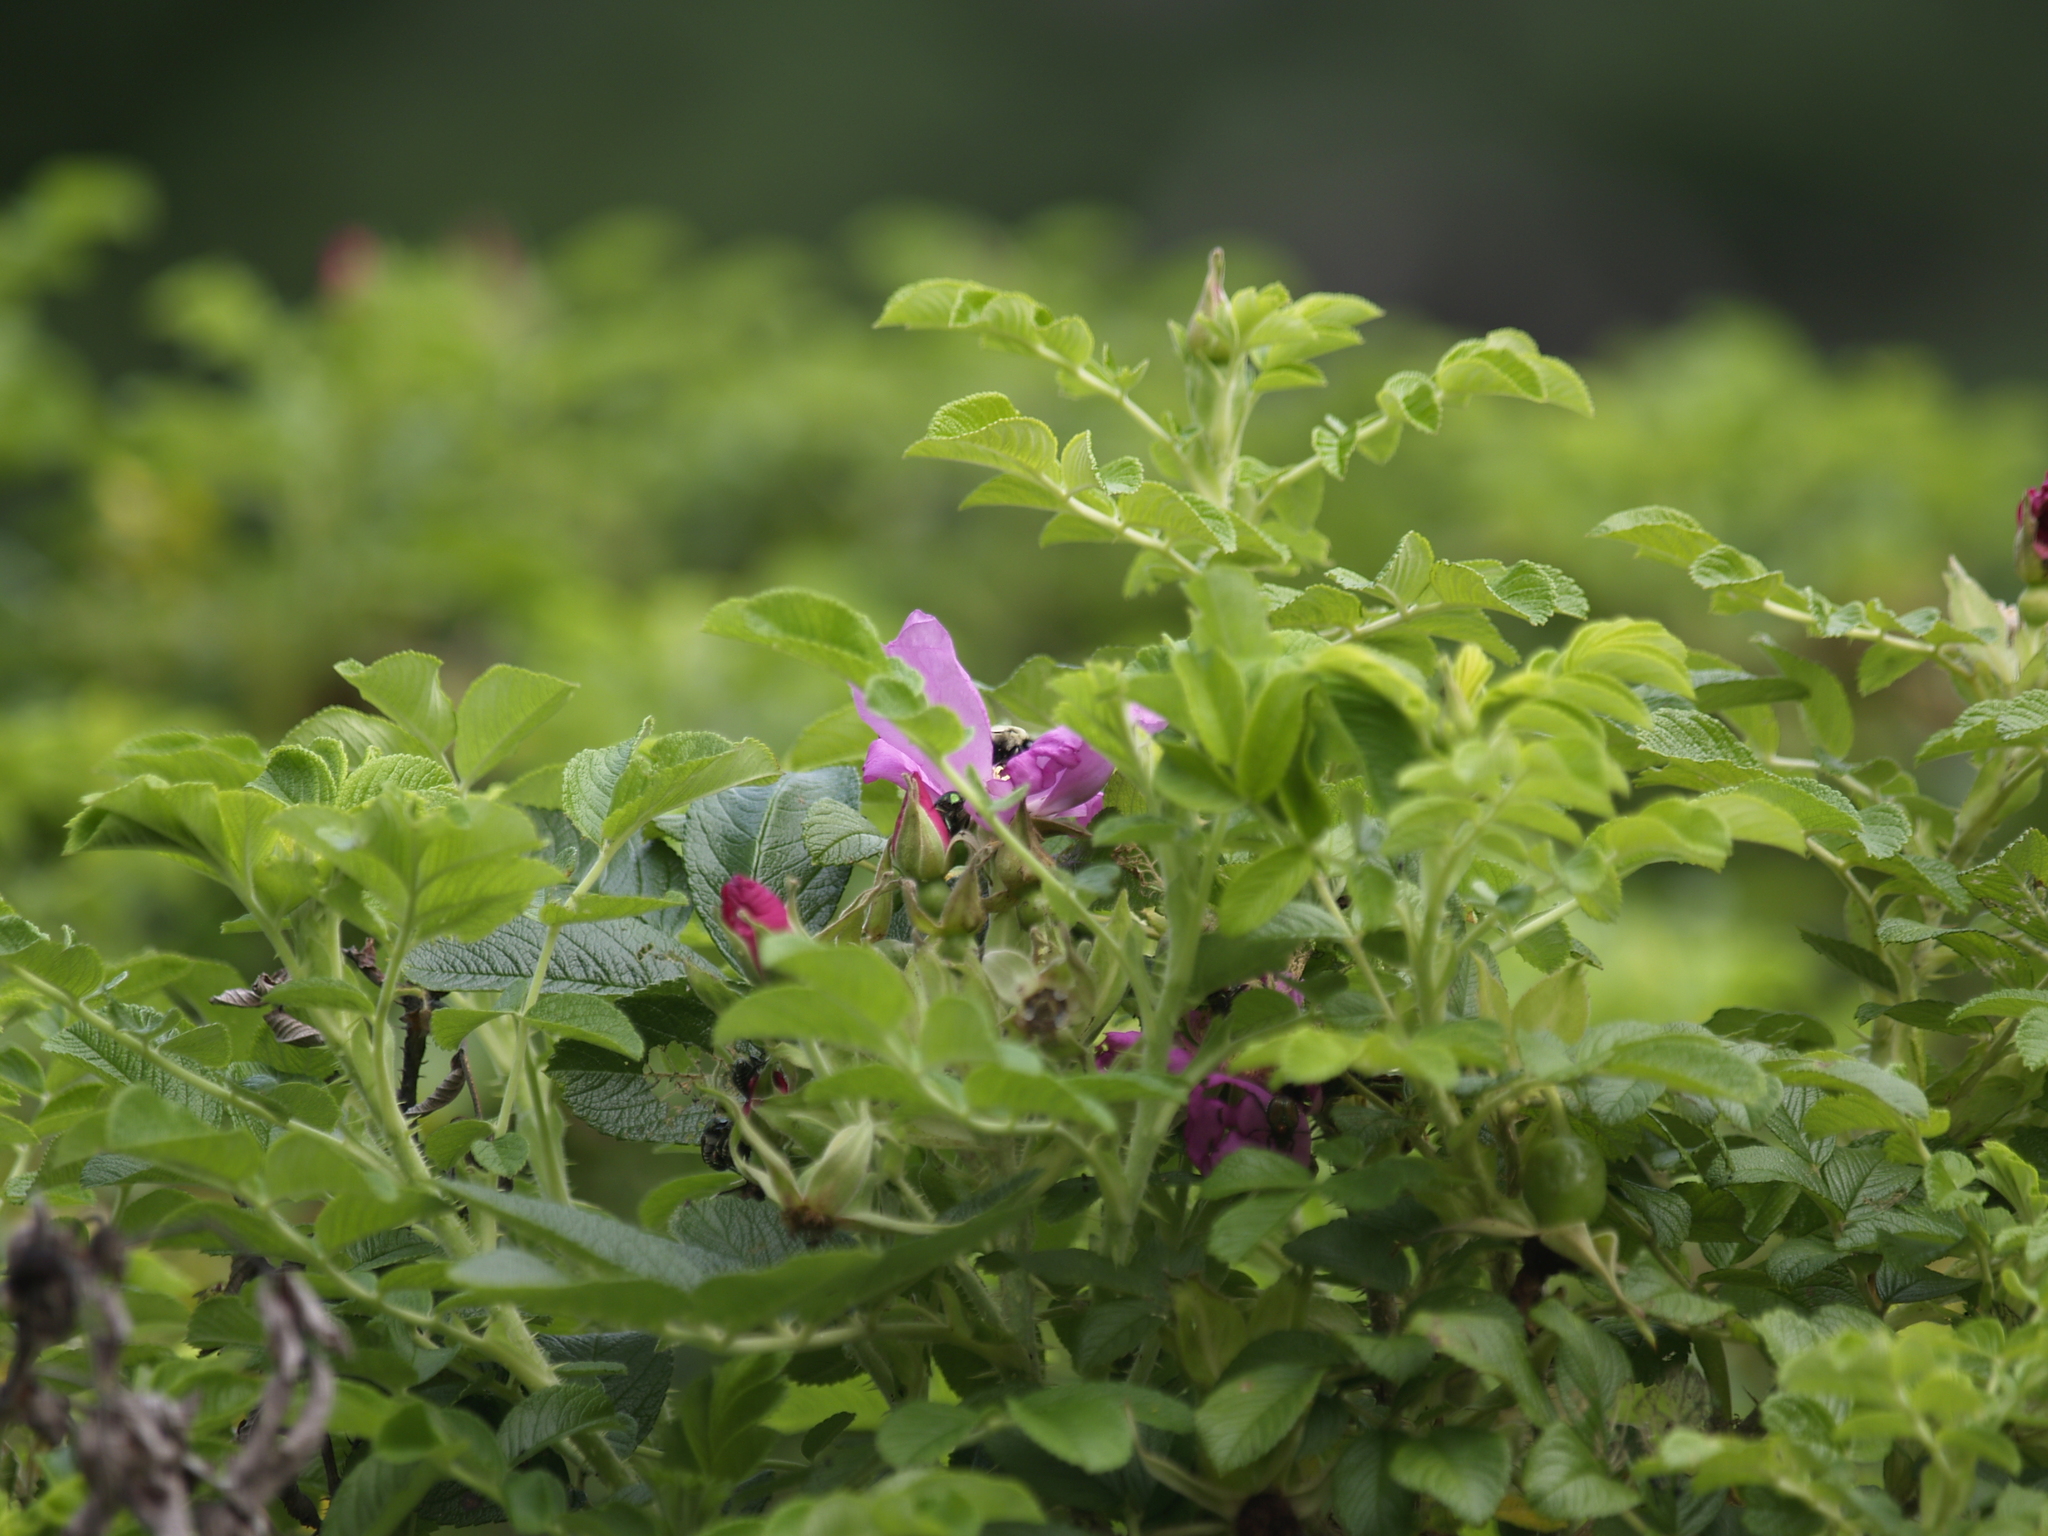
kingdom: Animalia
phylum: Arthropoda
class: Insecta
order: Coleoptera
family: Scarabaeidae
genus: Popillia
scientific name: Popillia japonica
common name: Japanese beetle
